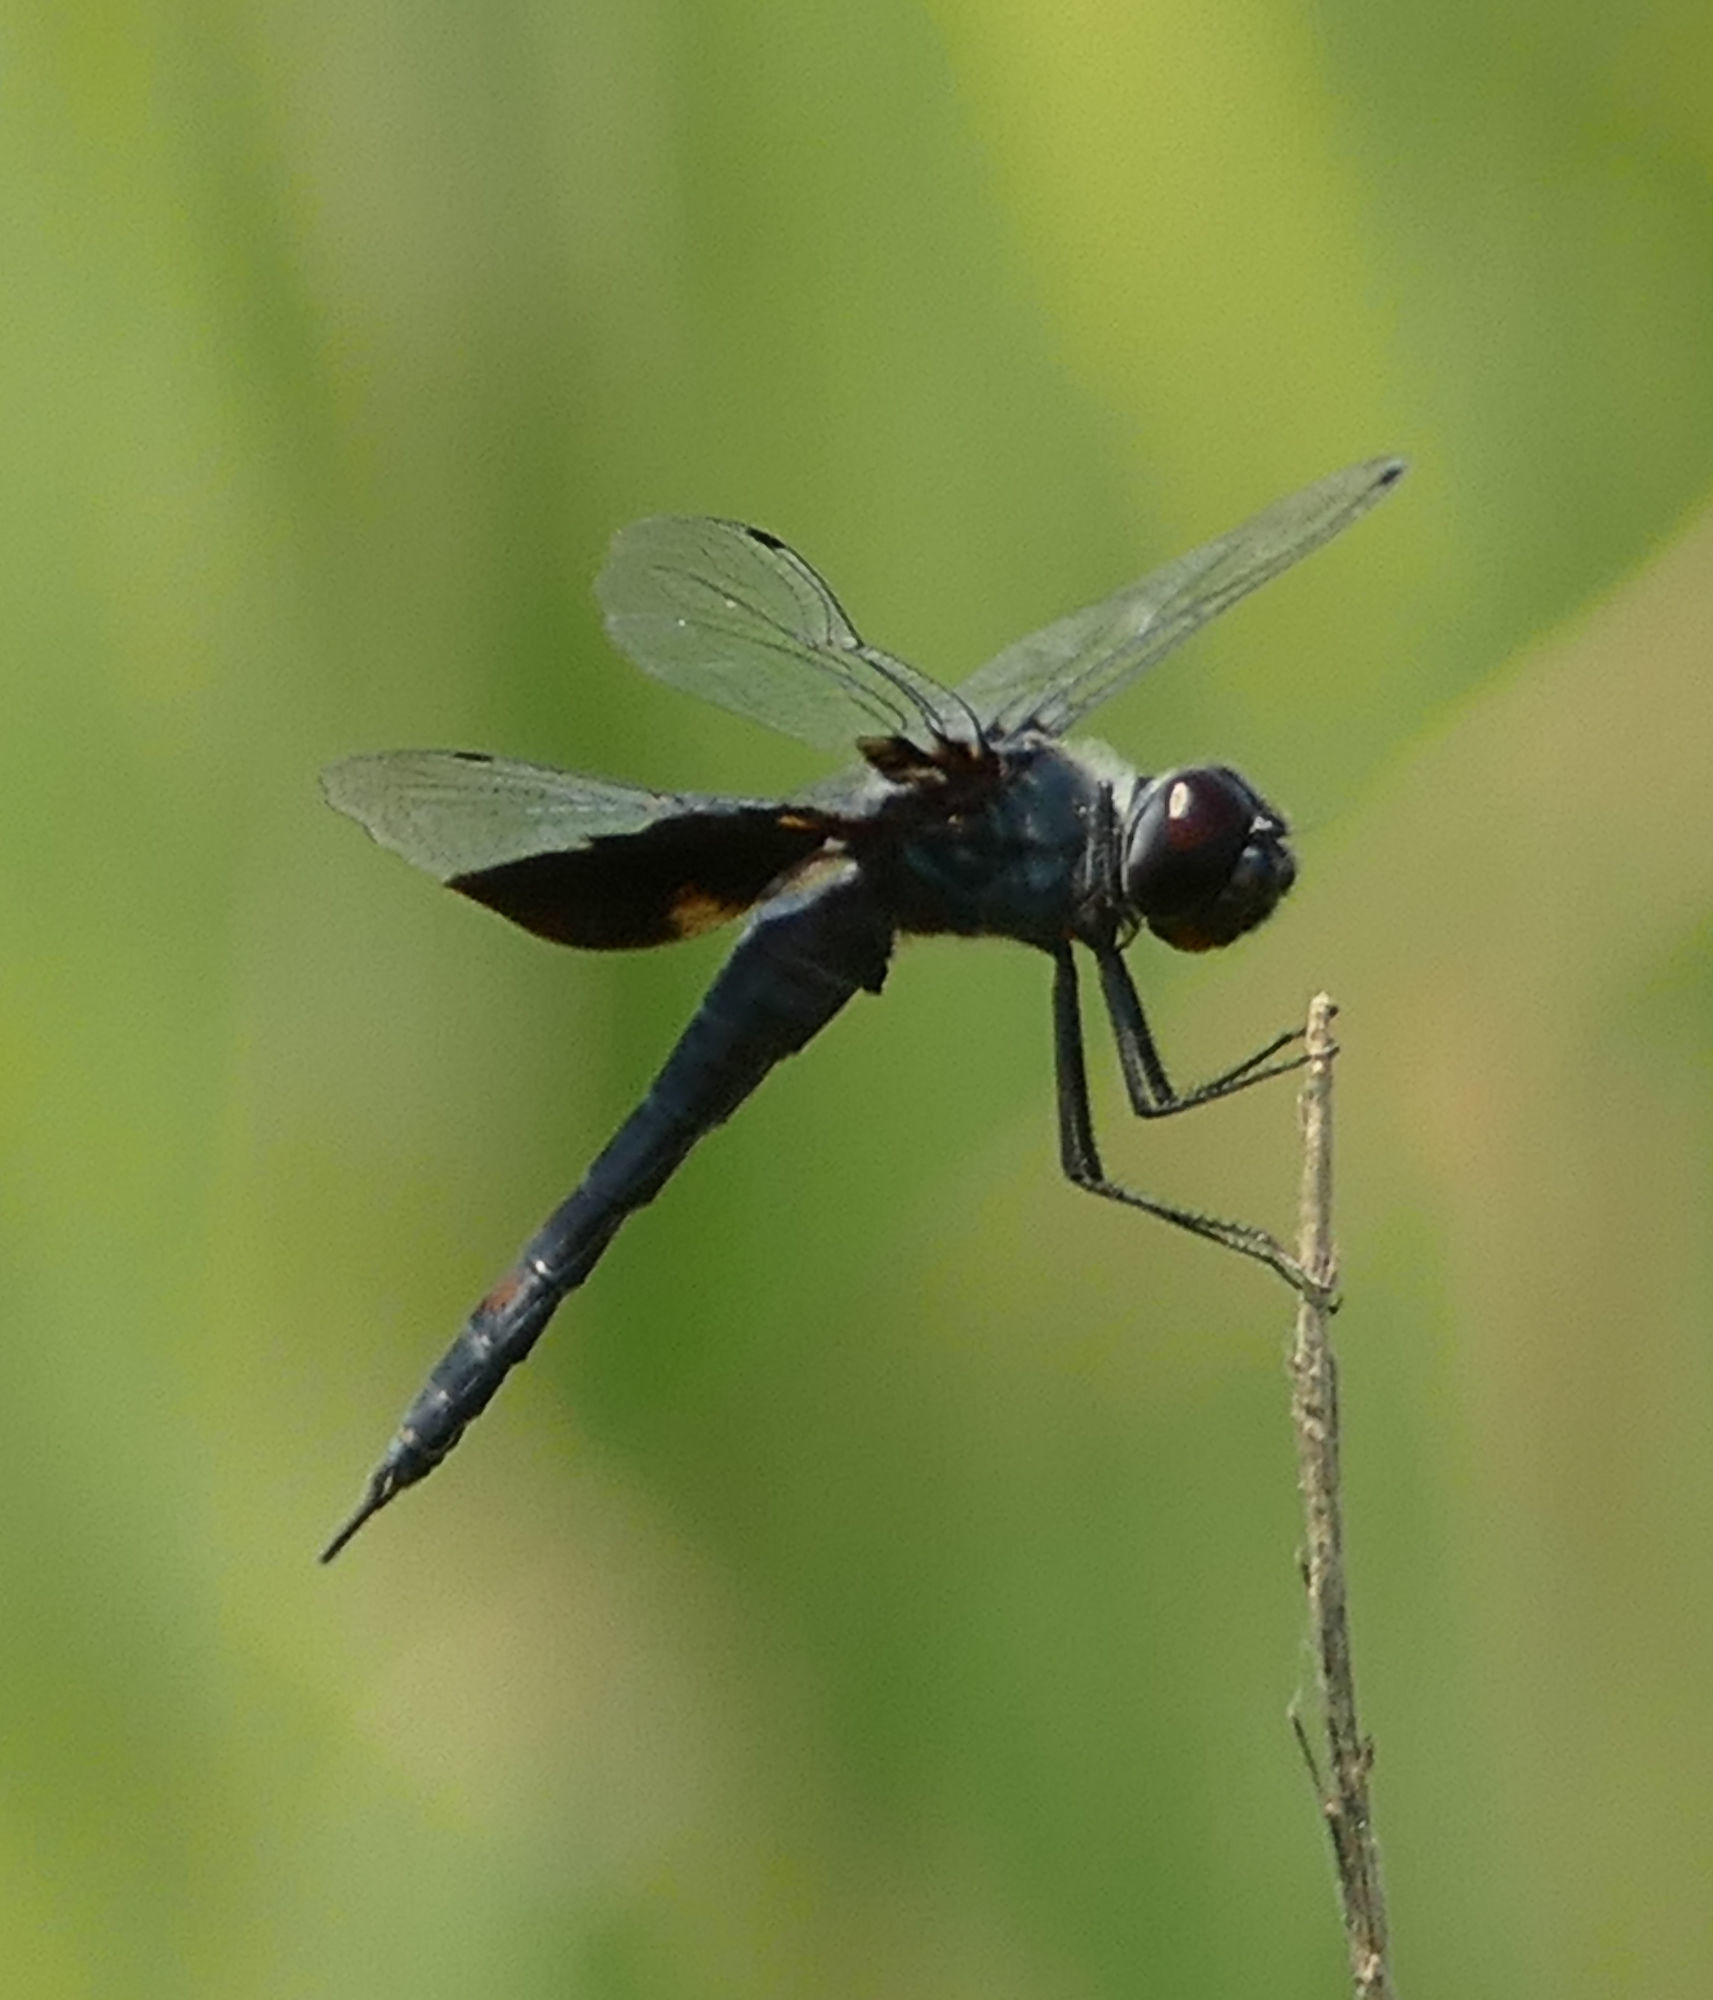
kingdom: Animalia
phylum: Arthropoda
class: Insecta
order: Odonata
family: Libellulidae
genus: Tramea
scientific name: Tramea lacerata
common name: Black saddlebags
